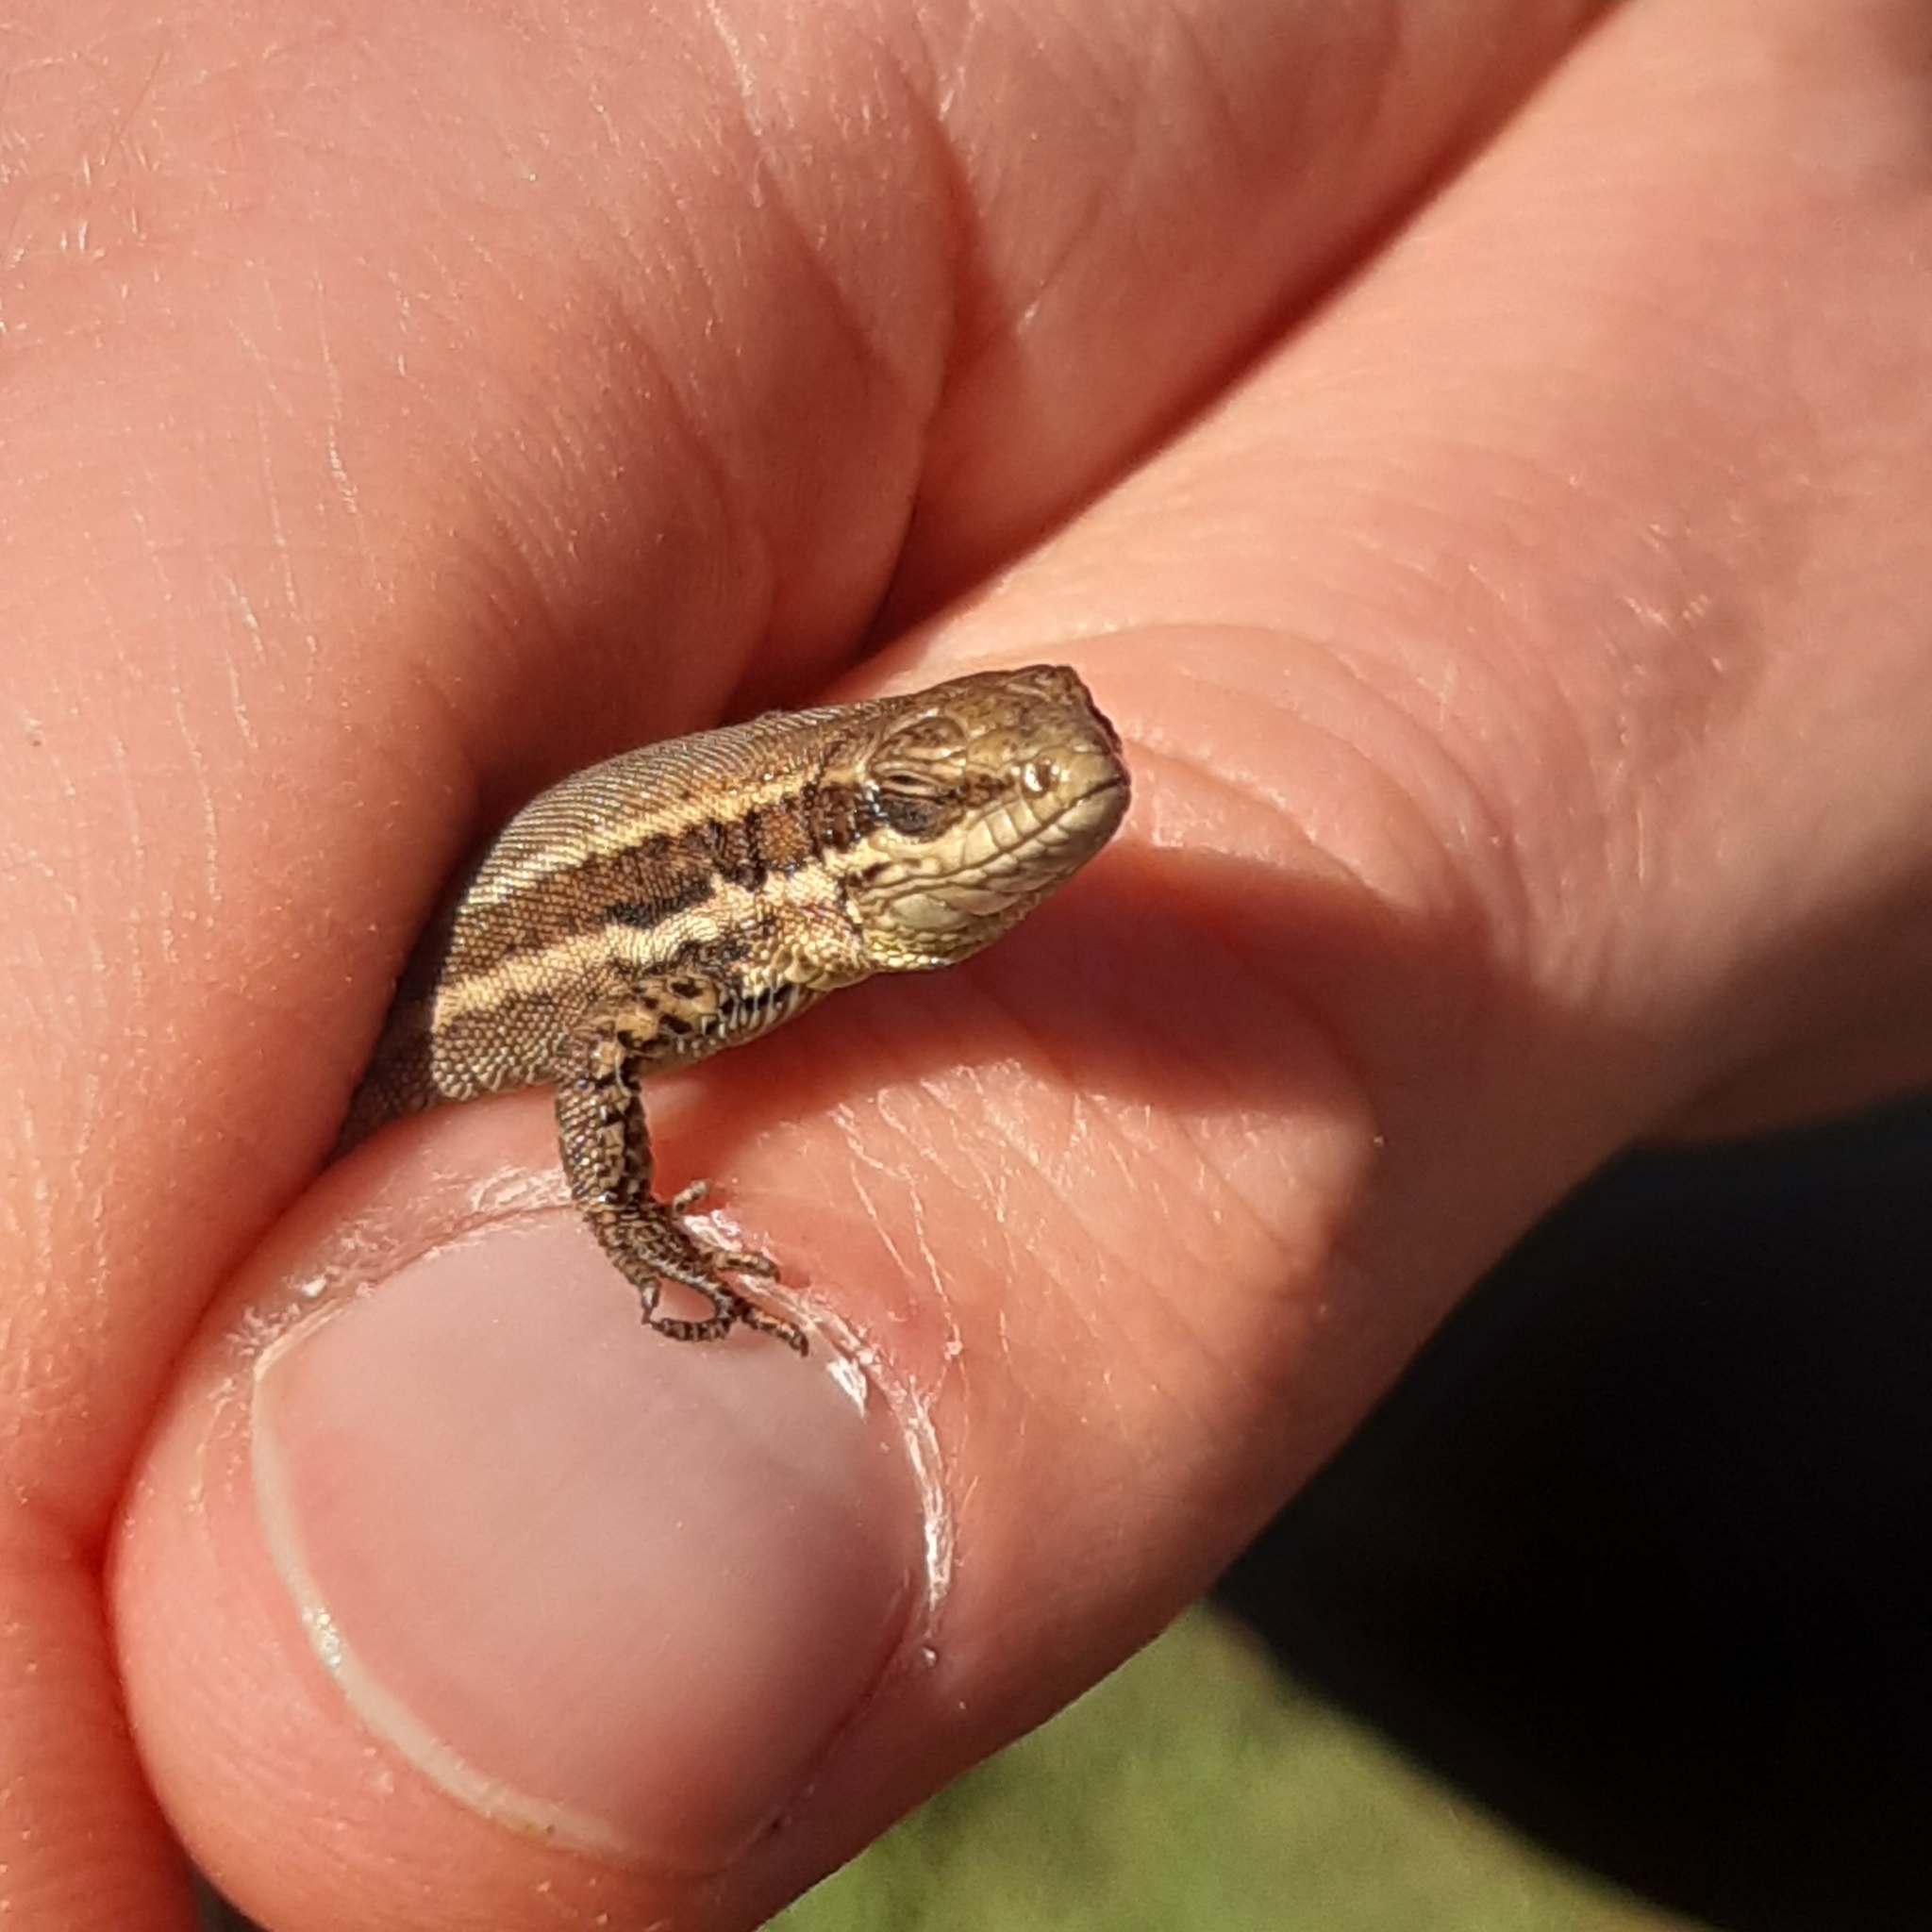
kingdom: Animalia
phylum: Chordata
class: Squamata
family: Lacertidae
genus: Podarcis
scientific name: Podarcis muralis
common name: Common wall lizard
